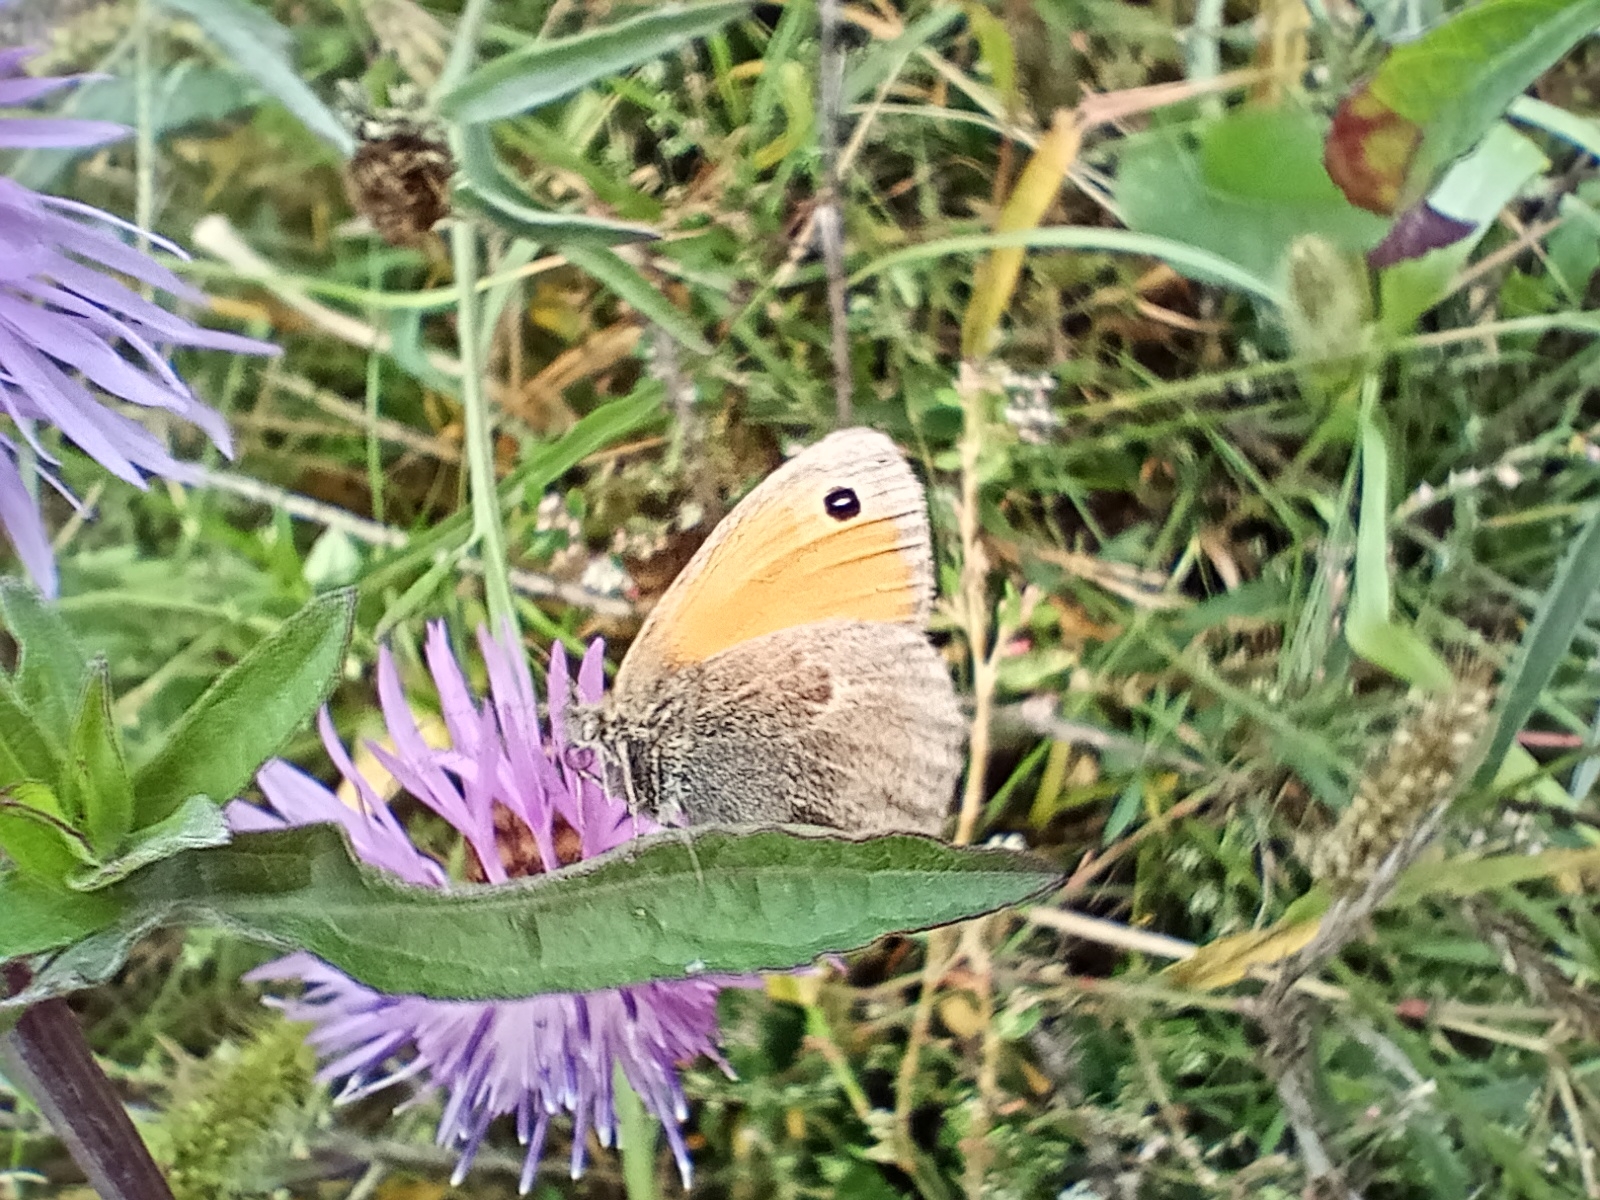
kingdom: Animalia
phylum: Arthropoda
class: Insecta
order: Lepidoptera
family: Nymphalidae
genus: Coenonympha
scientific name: Coenonympha pamphilus
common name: Small heath
